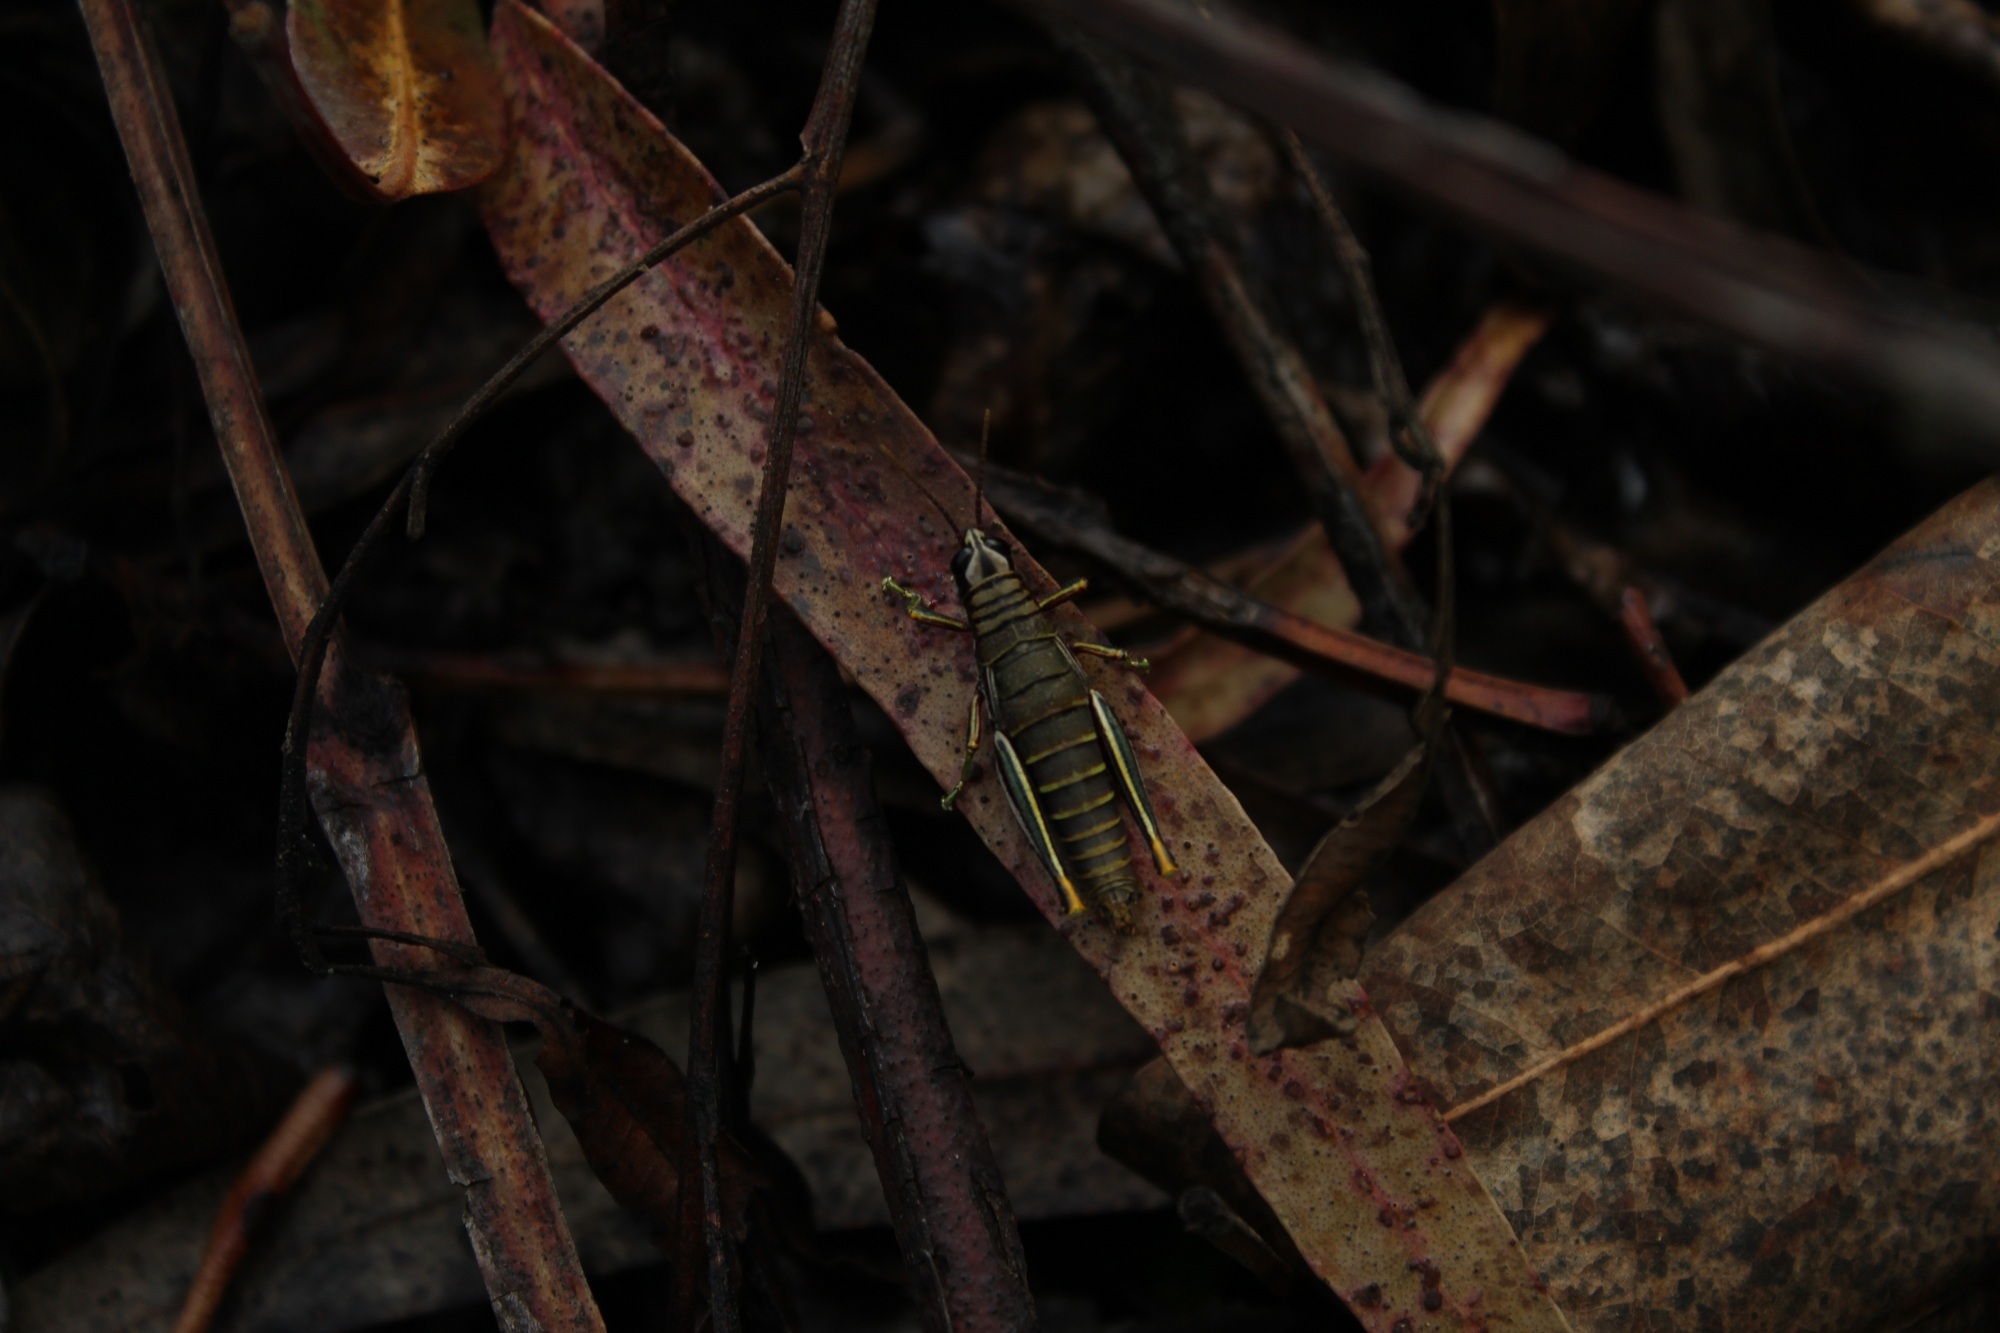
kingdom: Animalia
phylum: Arthropoda
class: Insecta
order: Orthoptera
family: Acrididae
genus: Agesander
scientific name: Agesander ruficornis
